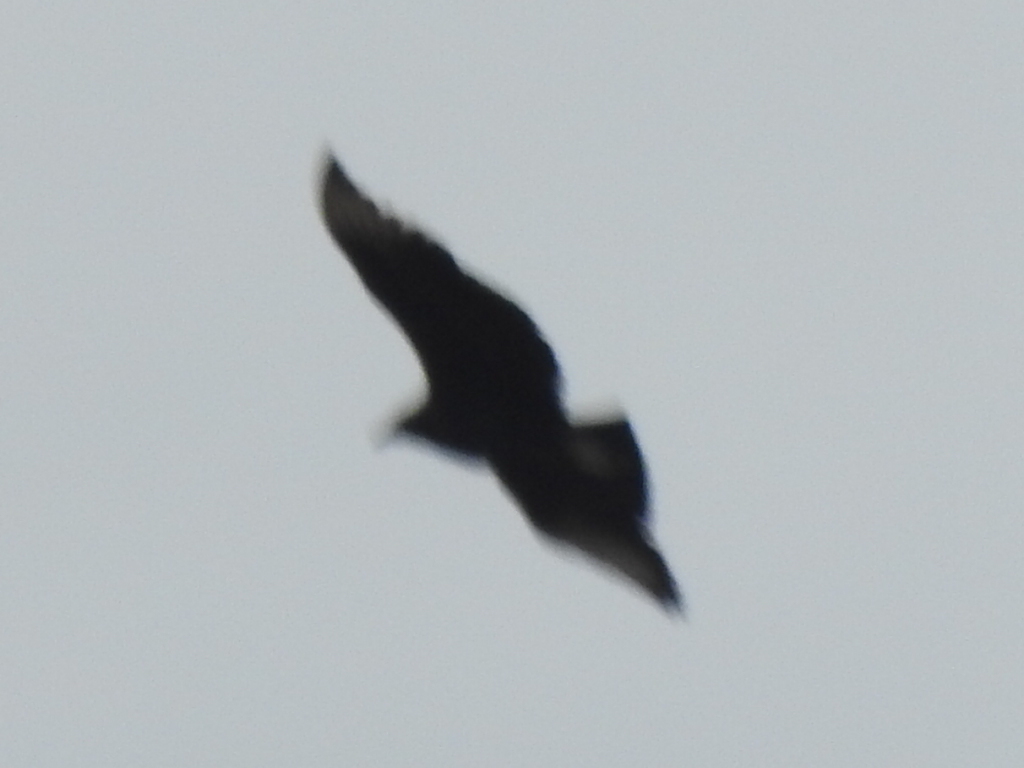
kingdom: Animalia
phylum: Chordata
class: Aves
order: Accipitriformes
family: Cathartidae
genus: Coragyps
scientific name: Coragyps atratus
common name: Black vulture
